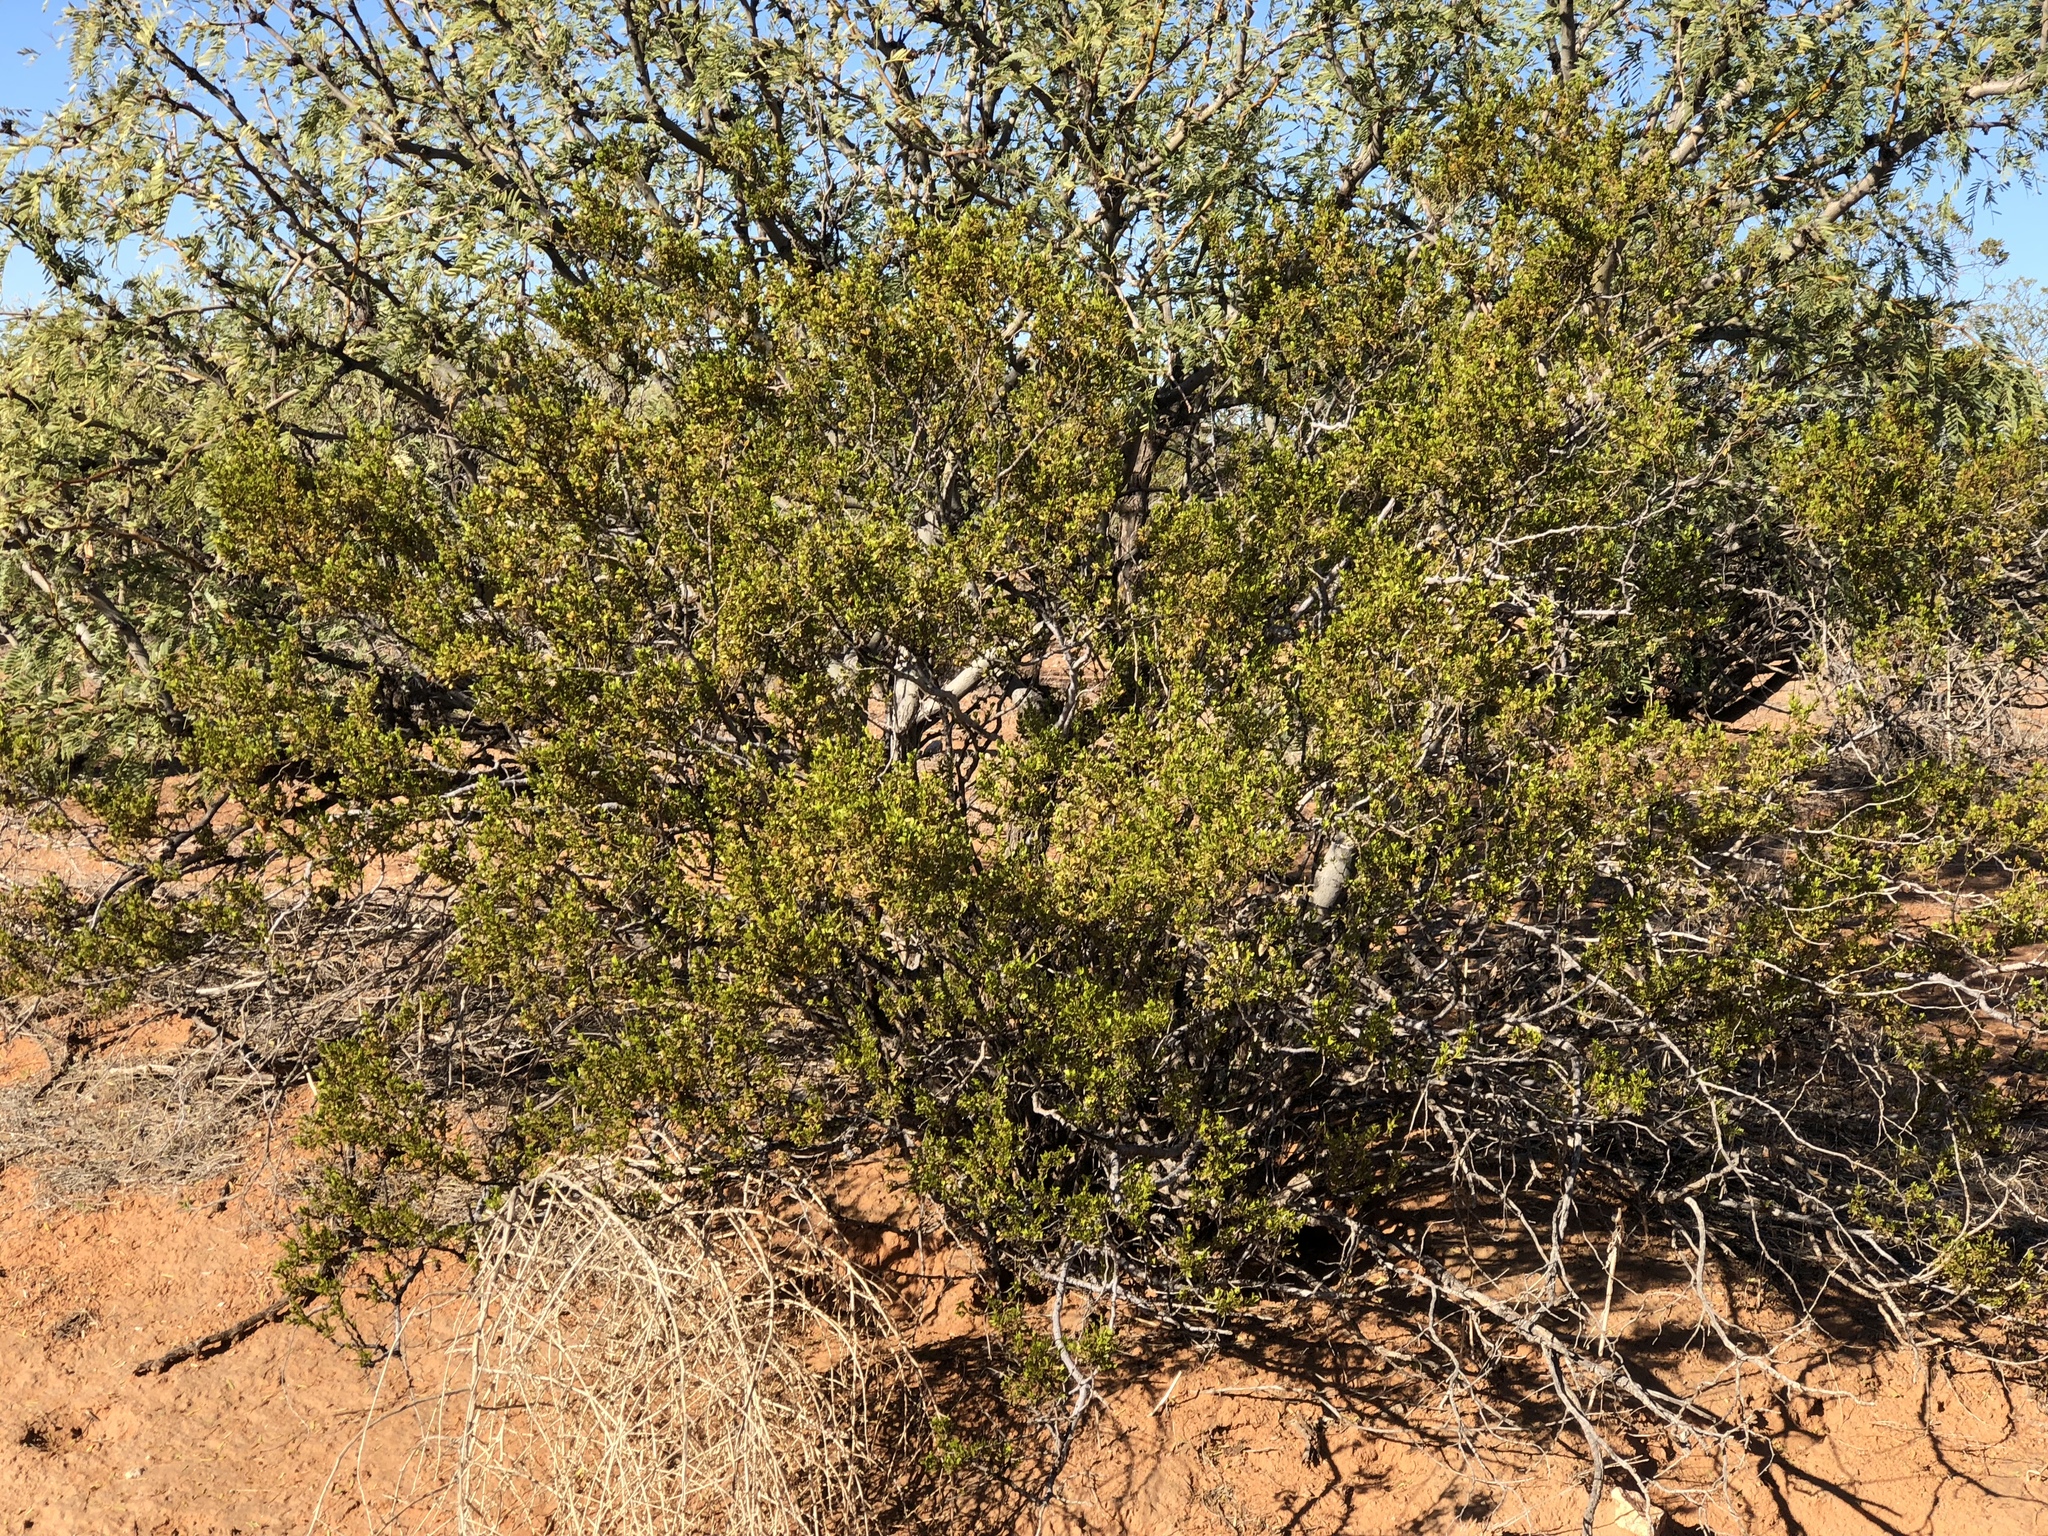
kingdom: Plantae
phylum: Tracheophyta
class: Magnoliopsida
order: Zygophyllales
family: Zygophyllaceae
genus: Larrea
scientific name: Larrea tridentata
